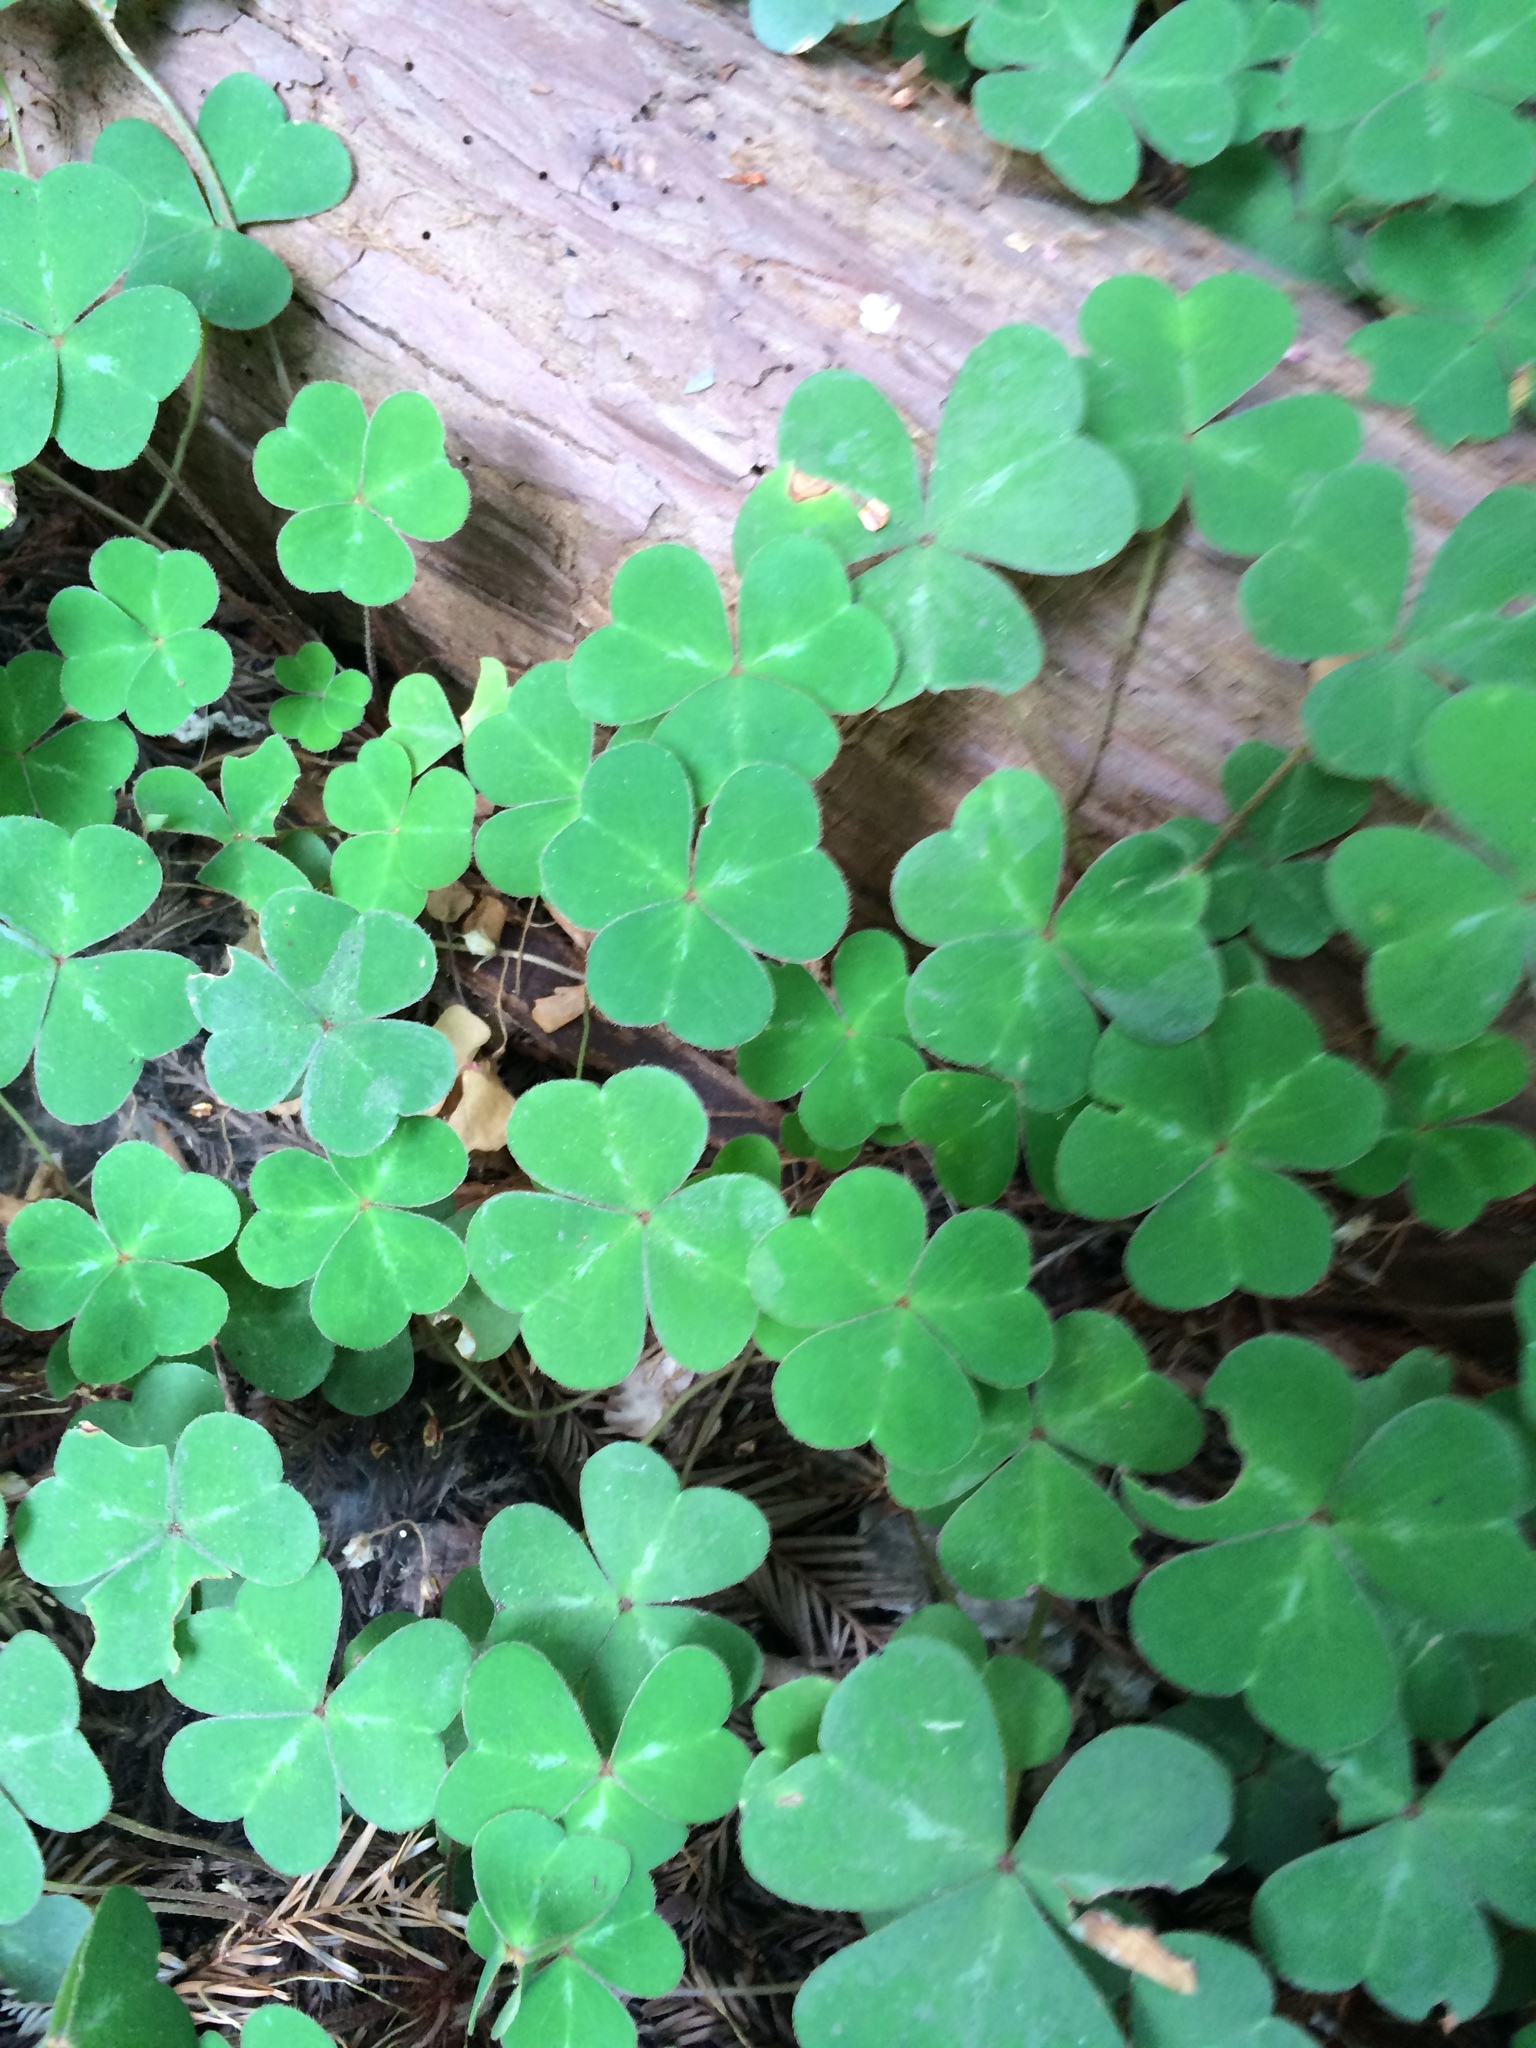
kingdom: Plantae
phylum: Tracheophyta
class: Magnoliopsida
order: Oxalidales
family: Oxalidaceae
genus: Oxalis
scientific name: Oxalis oregana
